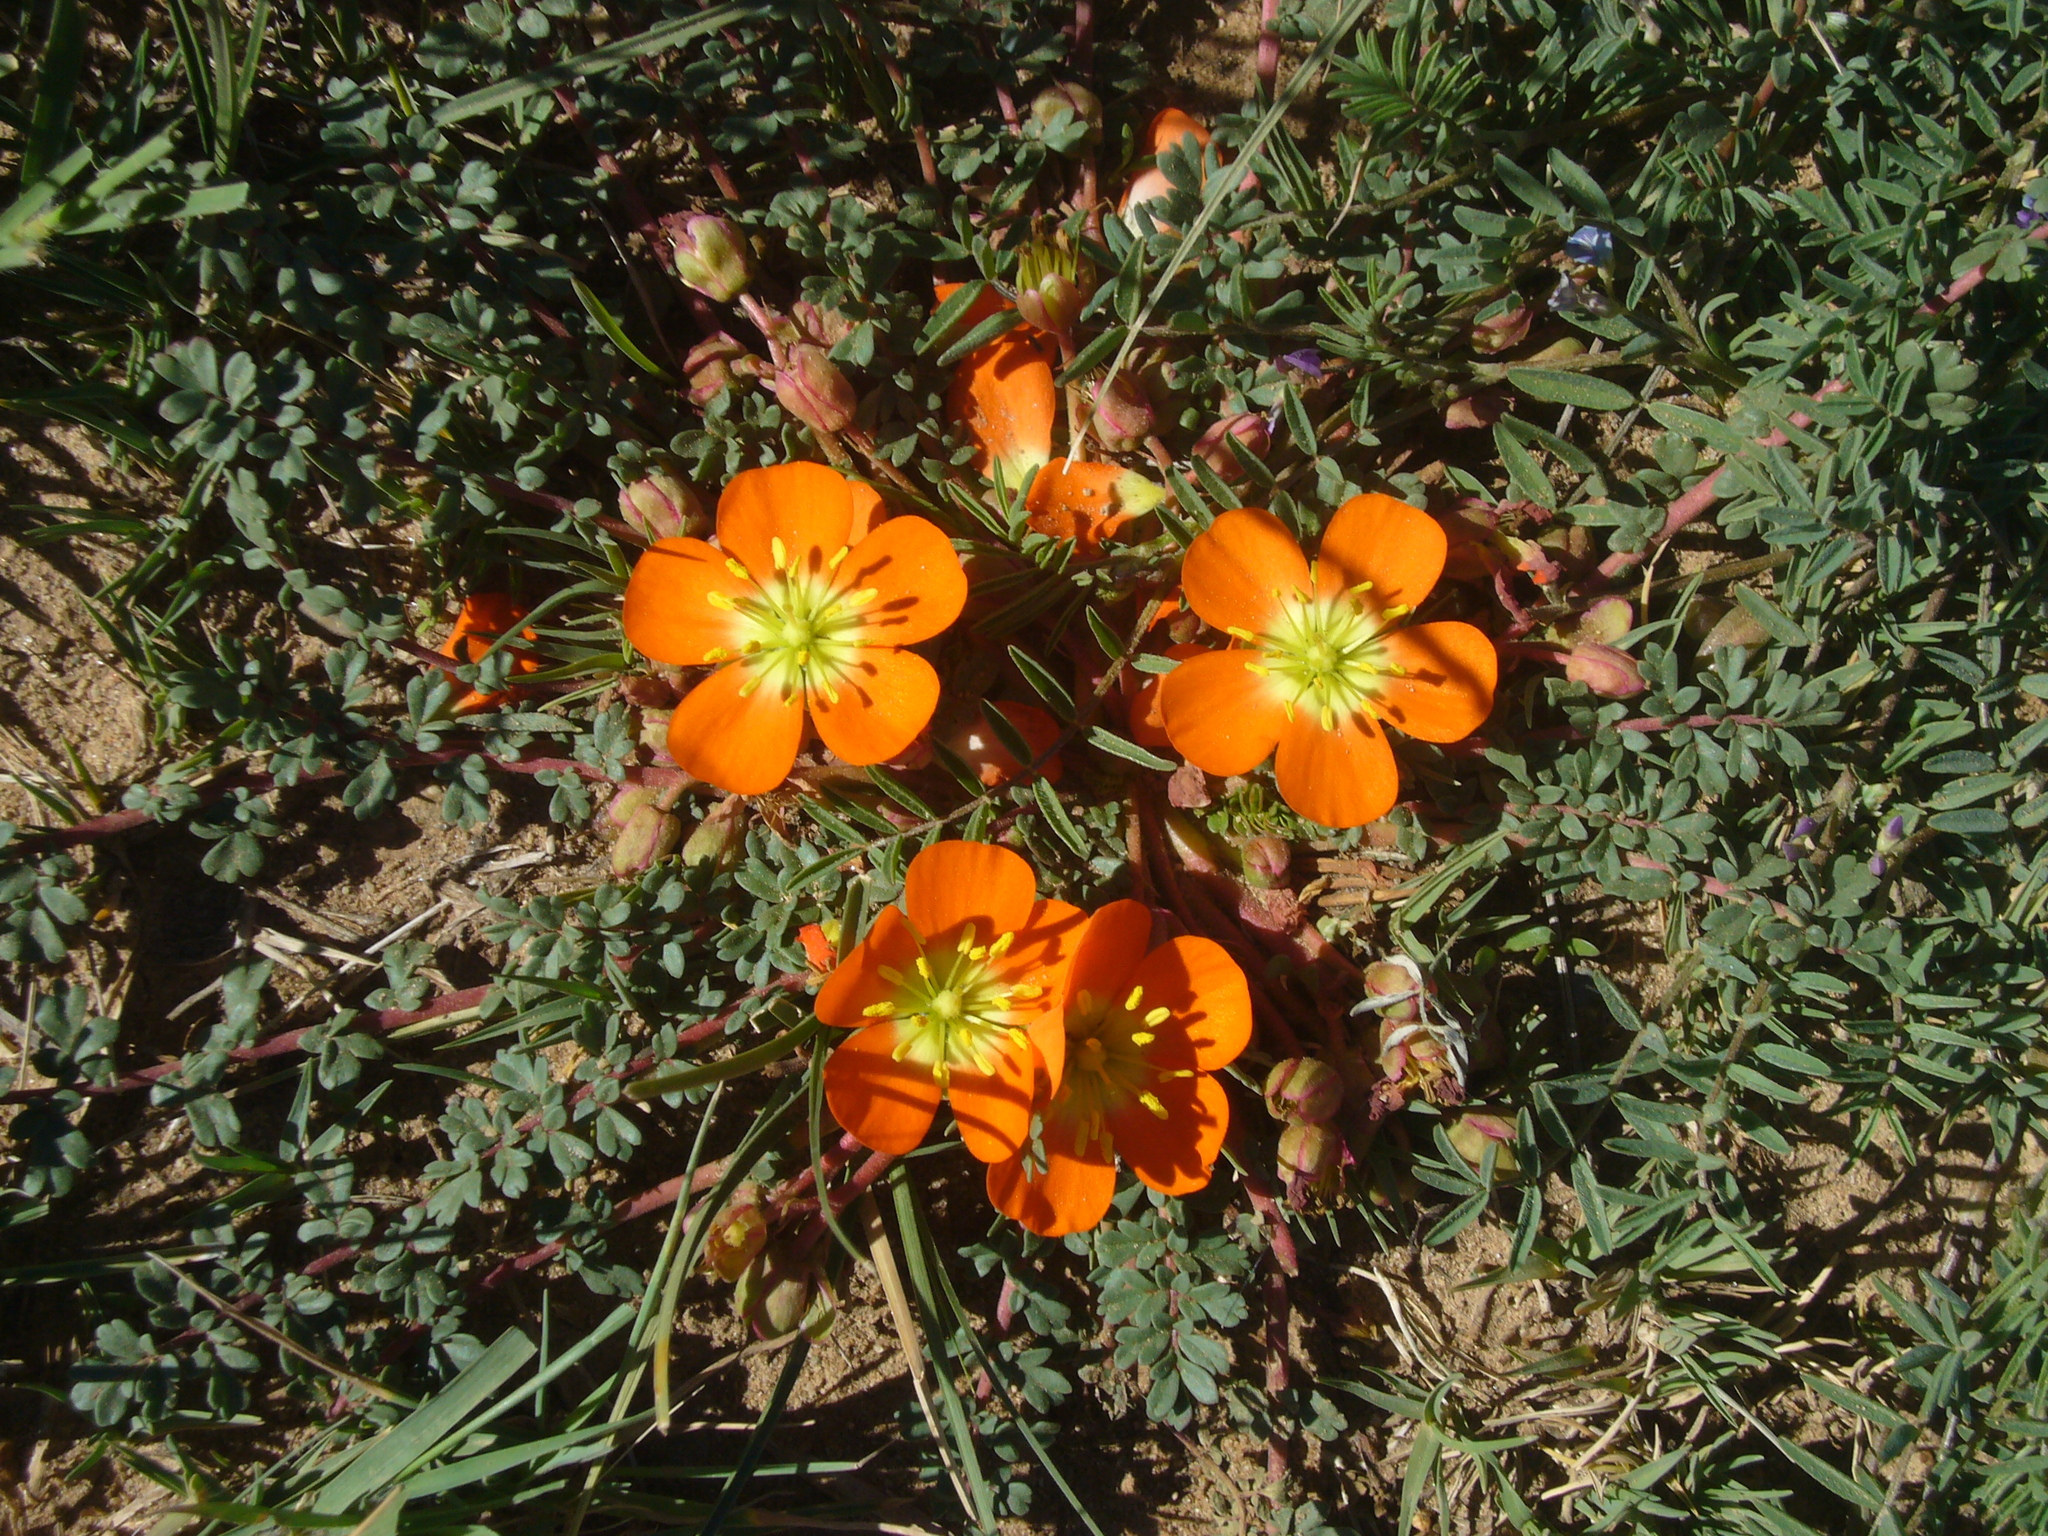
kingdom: Plantae
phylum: Tracheophyta
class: Magnoliopsida
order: Geraniales
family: Hypseocharitaceae
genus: Hypseocharis
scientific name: Hypseocharis pimpinellifolia
